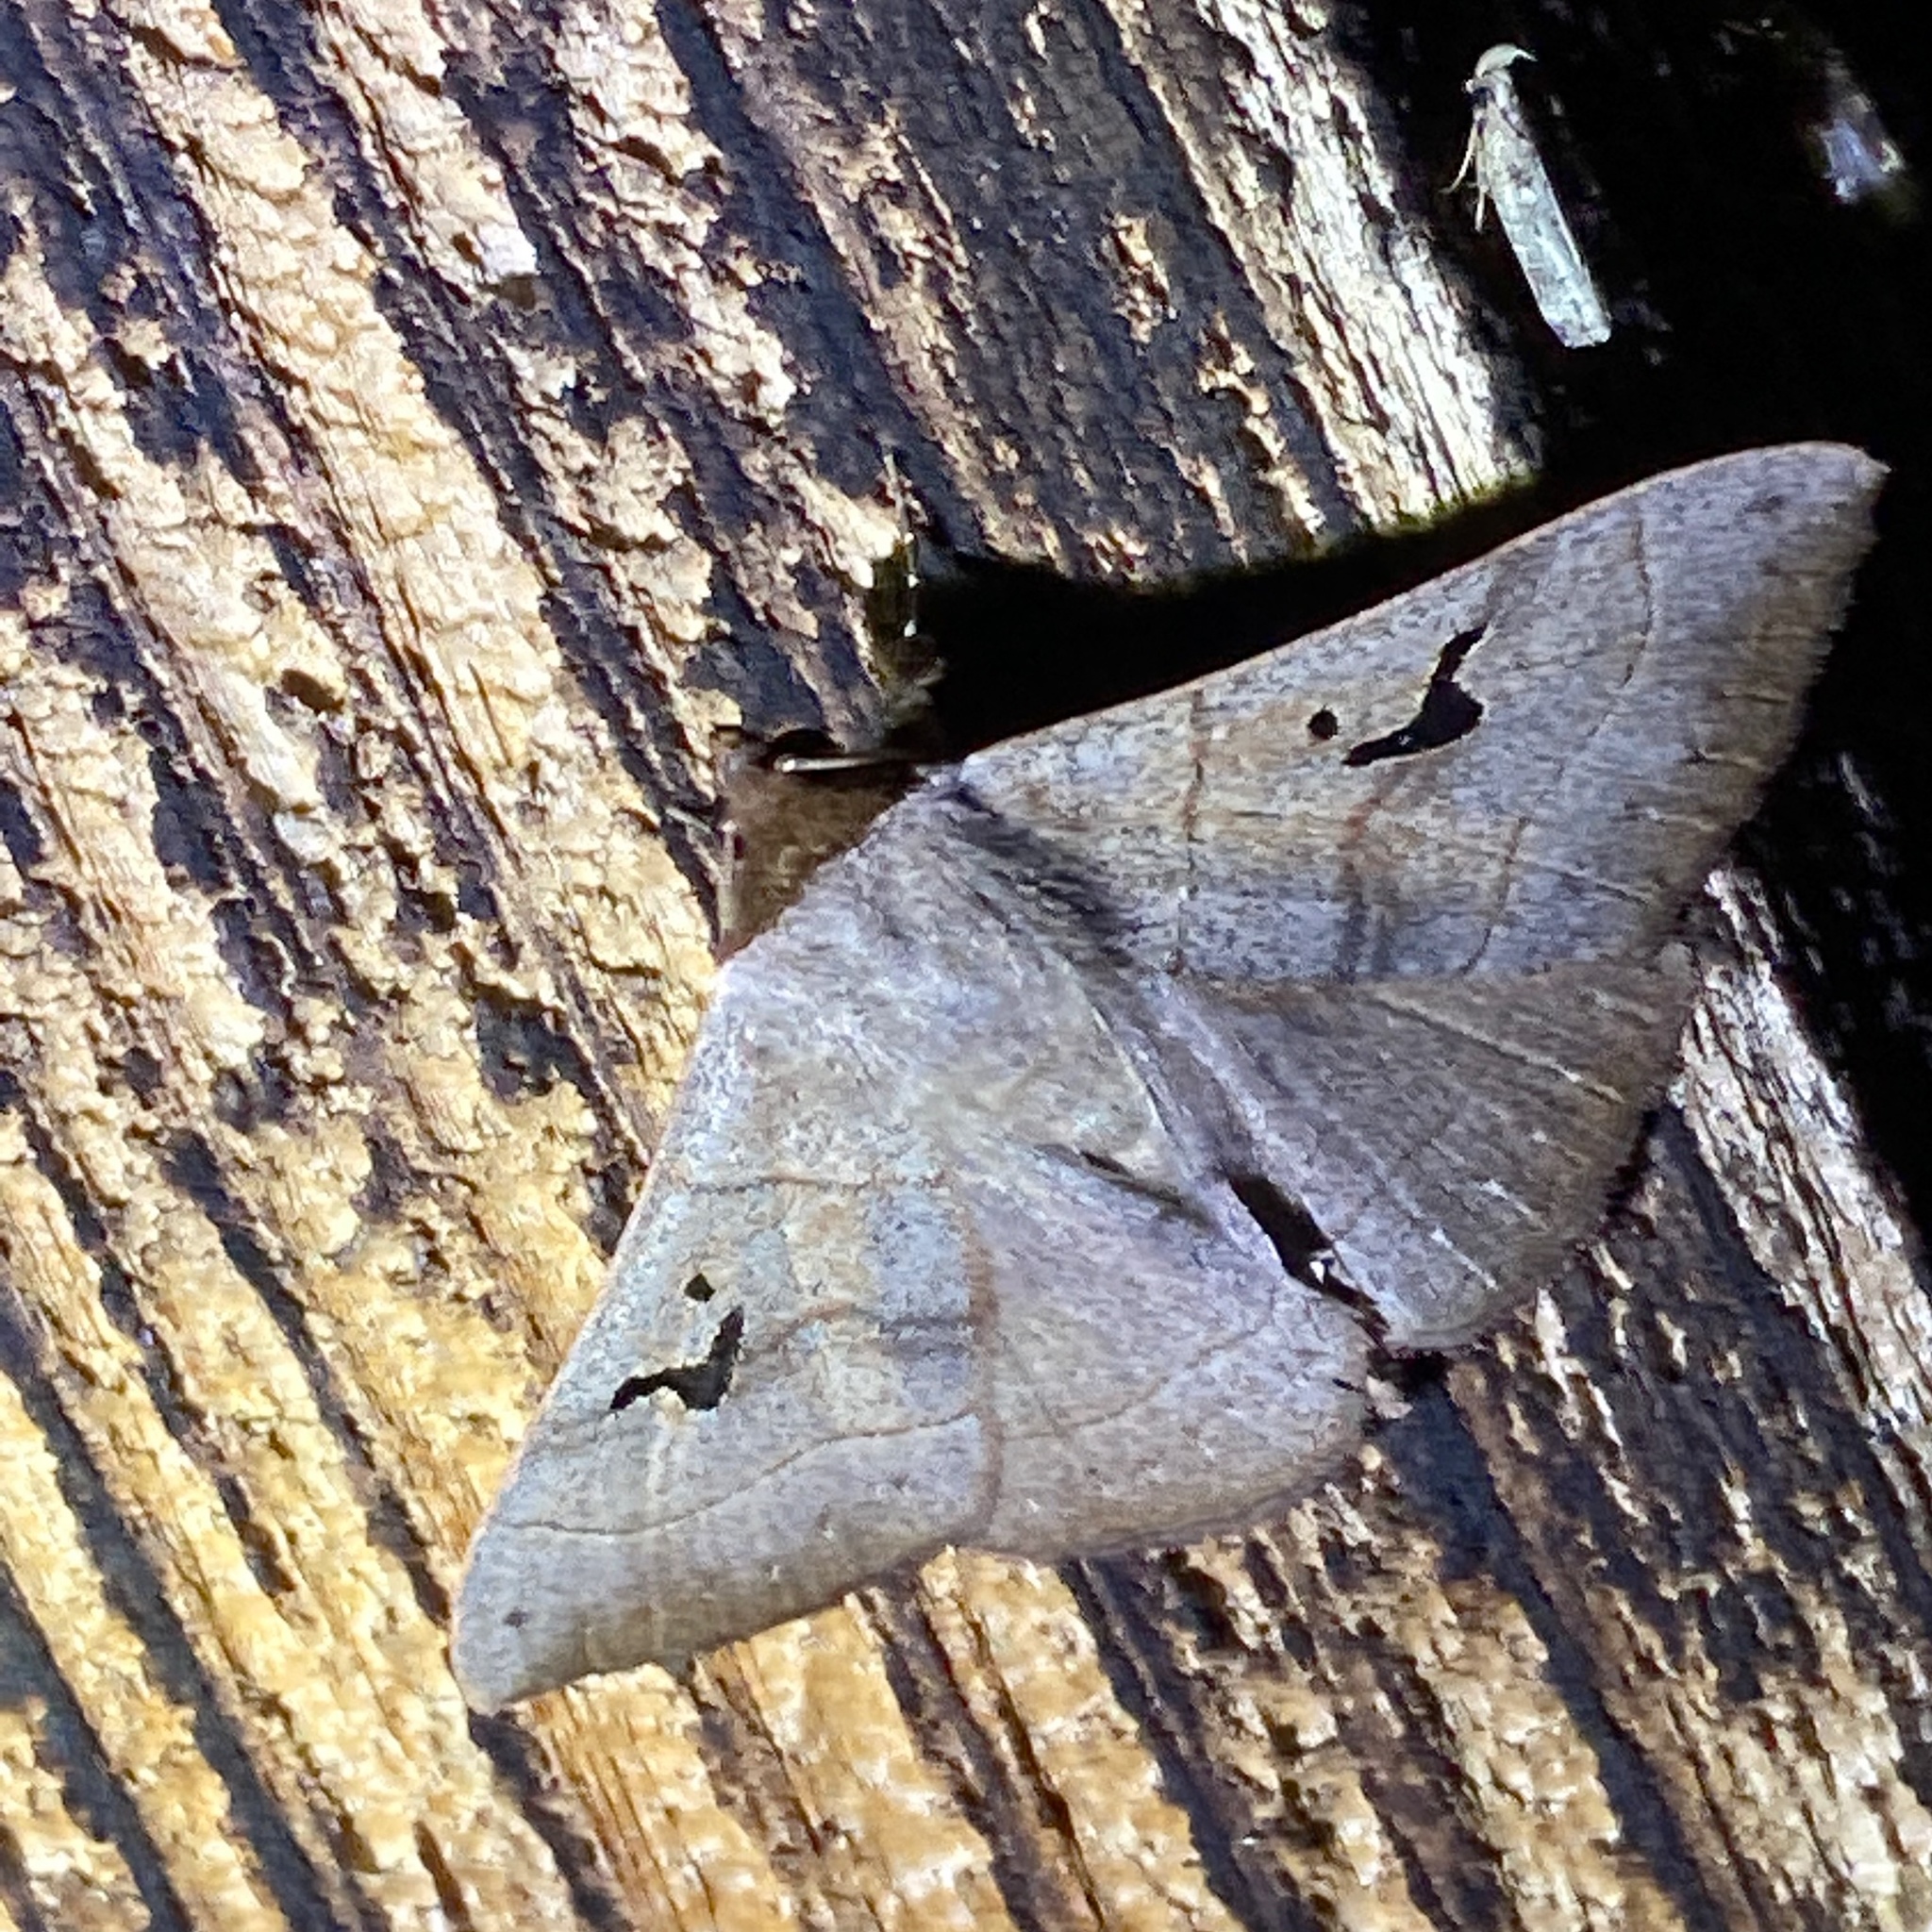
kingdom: Animalia
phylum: Arthropoda
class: Insecta
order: Lepidoptera
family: Erebidae
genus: Panopoda
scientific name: Panopoda carneicosta
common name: Brown panopoda moth
